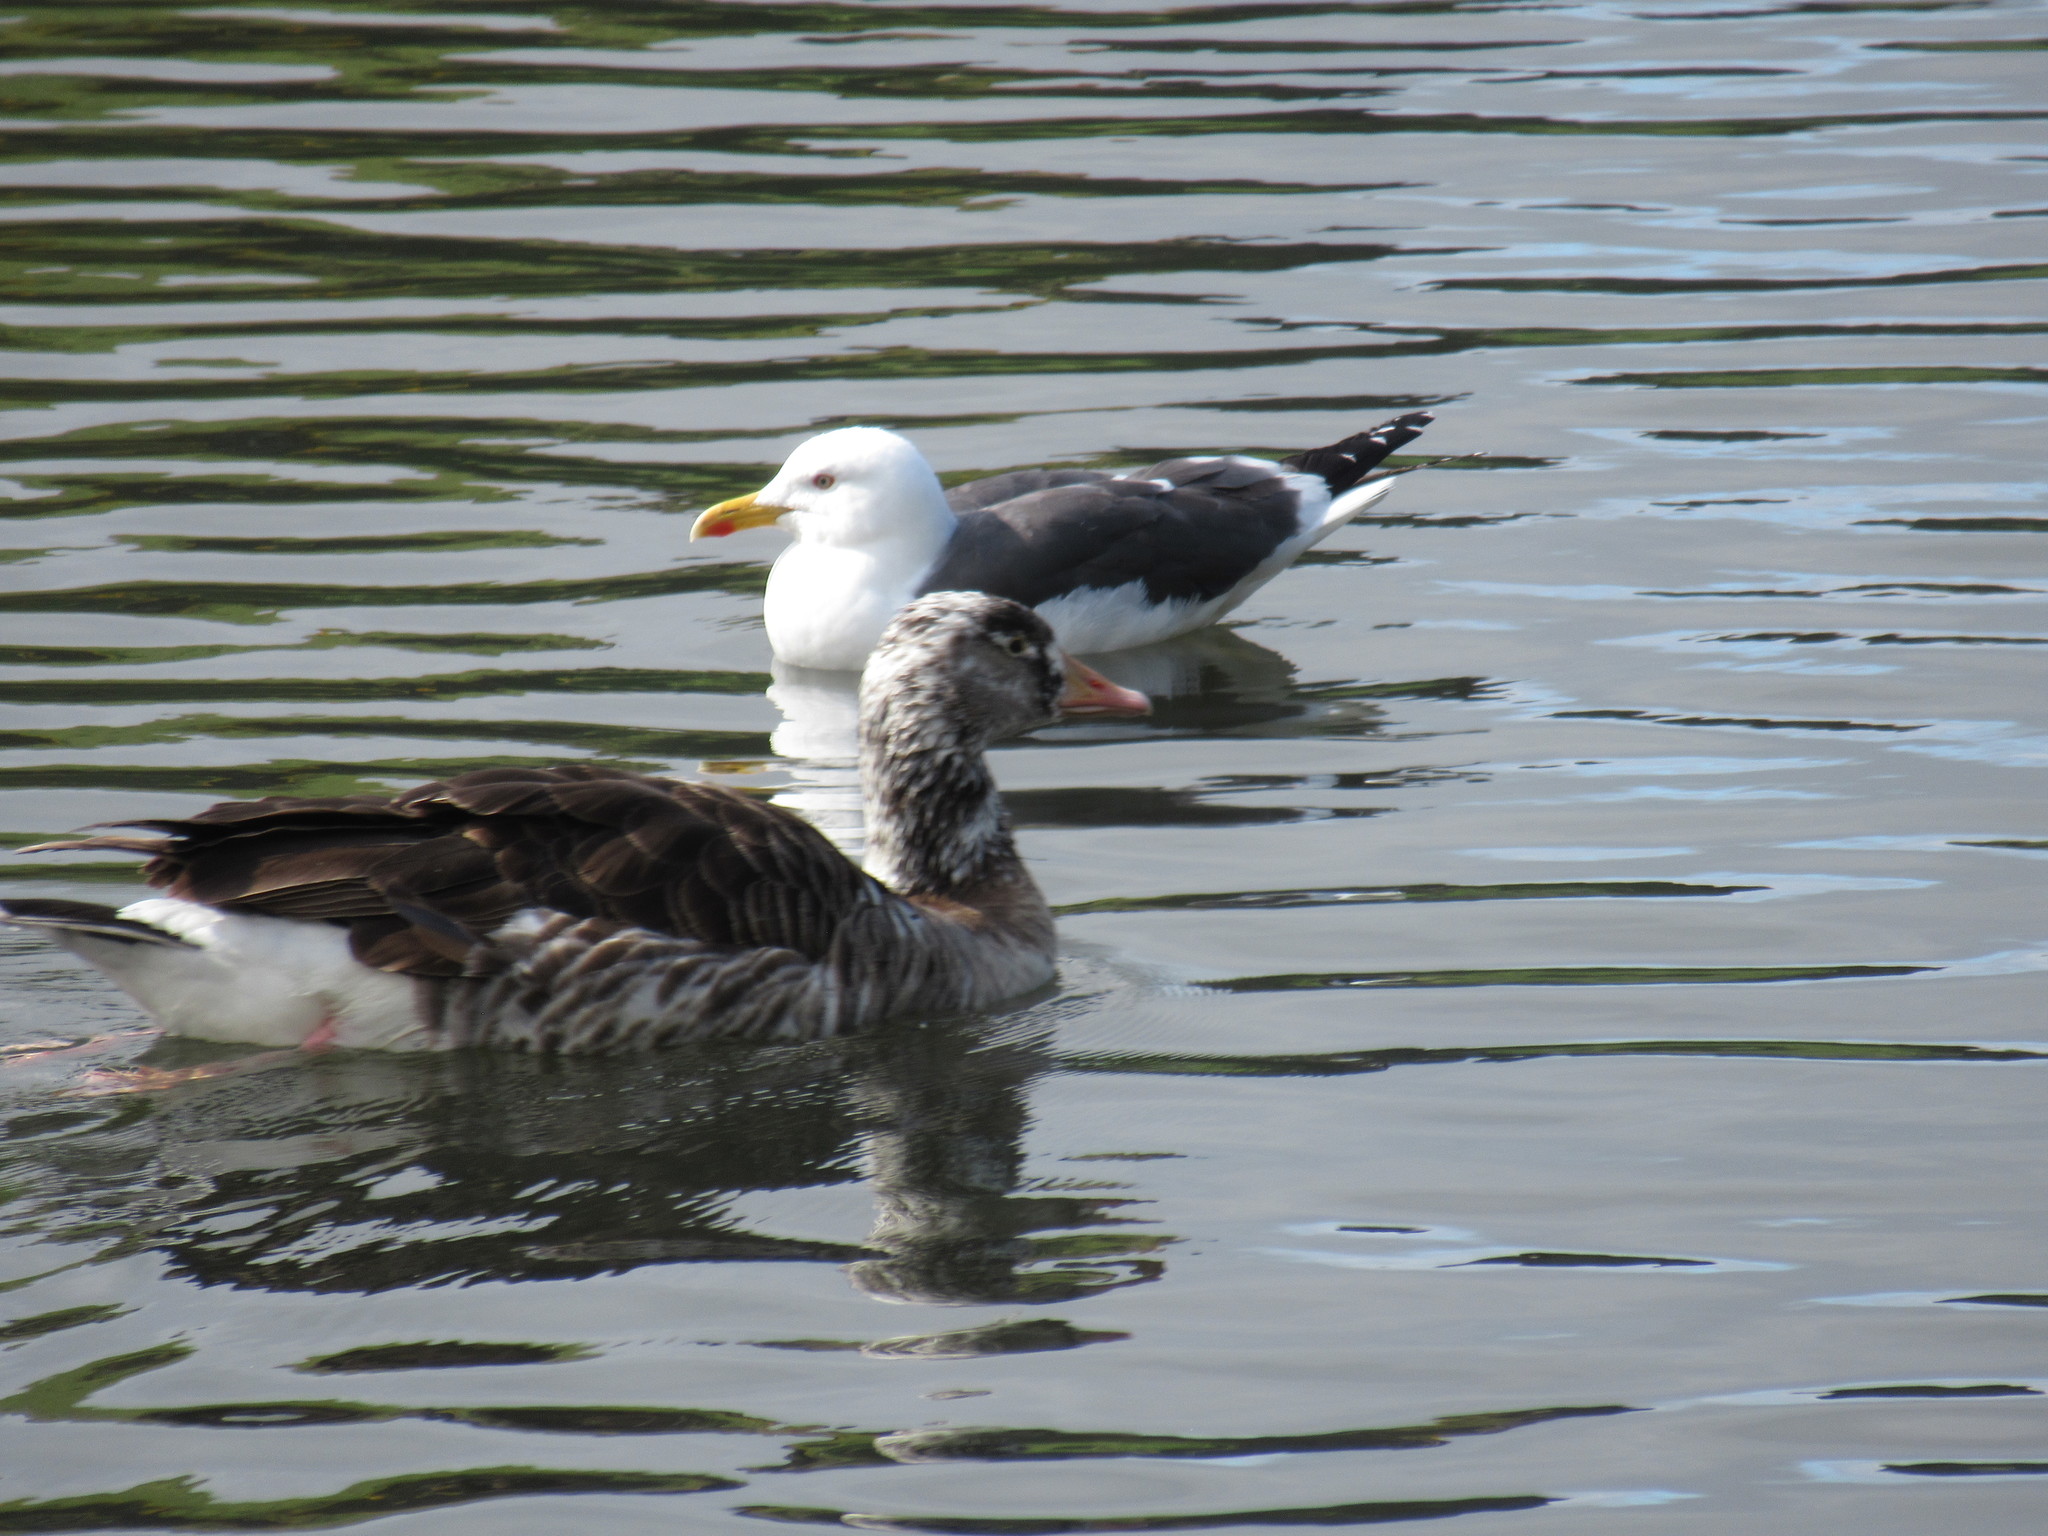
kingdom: Animalia
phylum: Chordata
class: Aves
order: Anseriformes
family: Anatidae
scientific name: Anatidae
